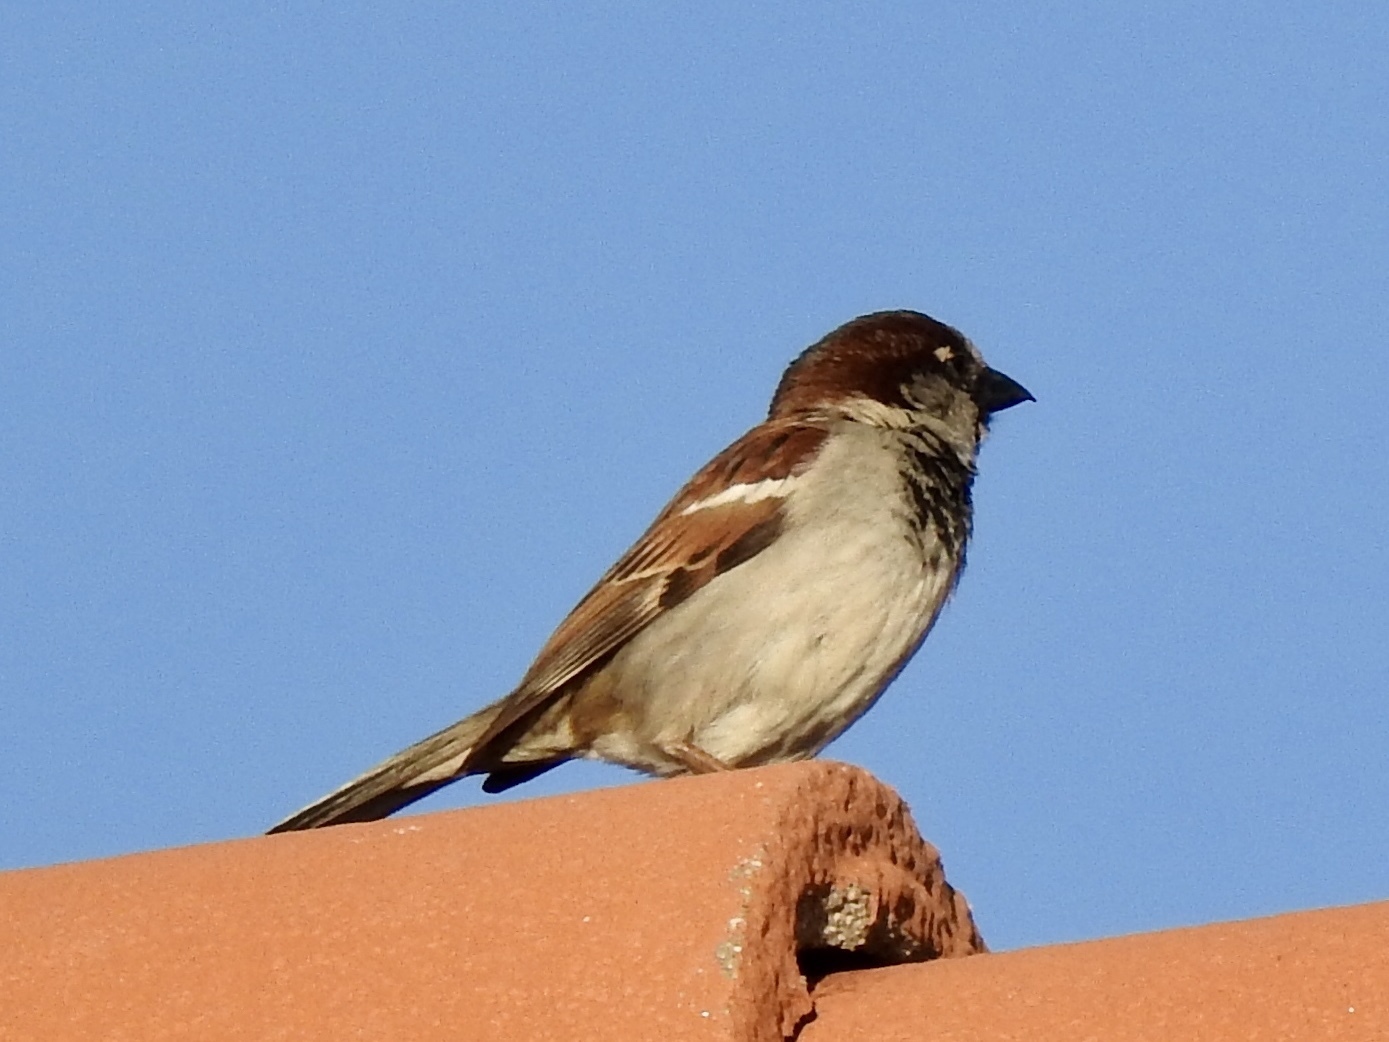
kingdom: Animalia
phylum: Chordata
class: Aves
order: Passeriformes
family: Passeridae
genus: Passer
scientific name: Passer domesticus
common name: House sparrow
